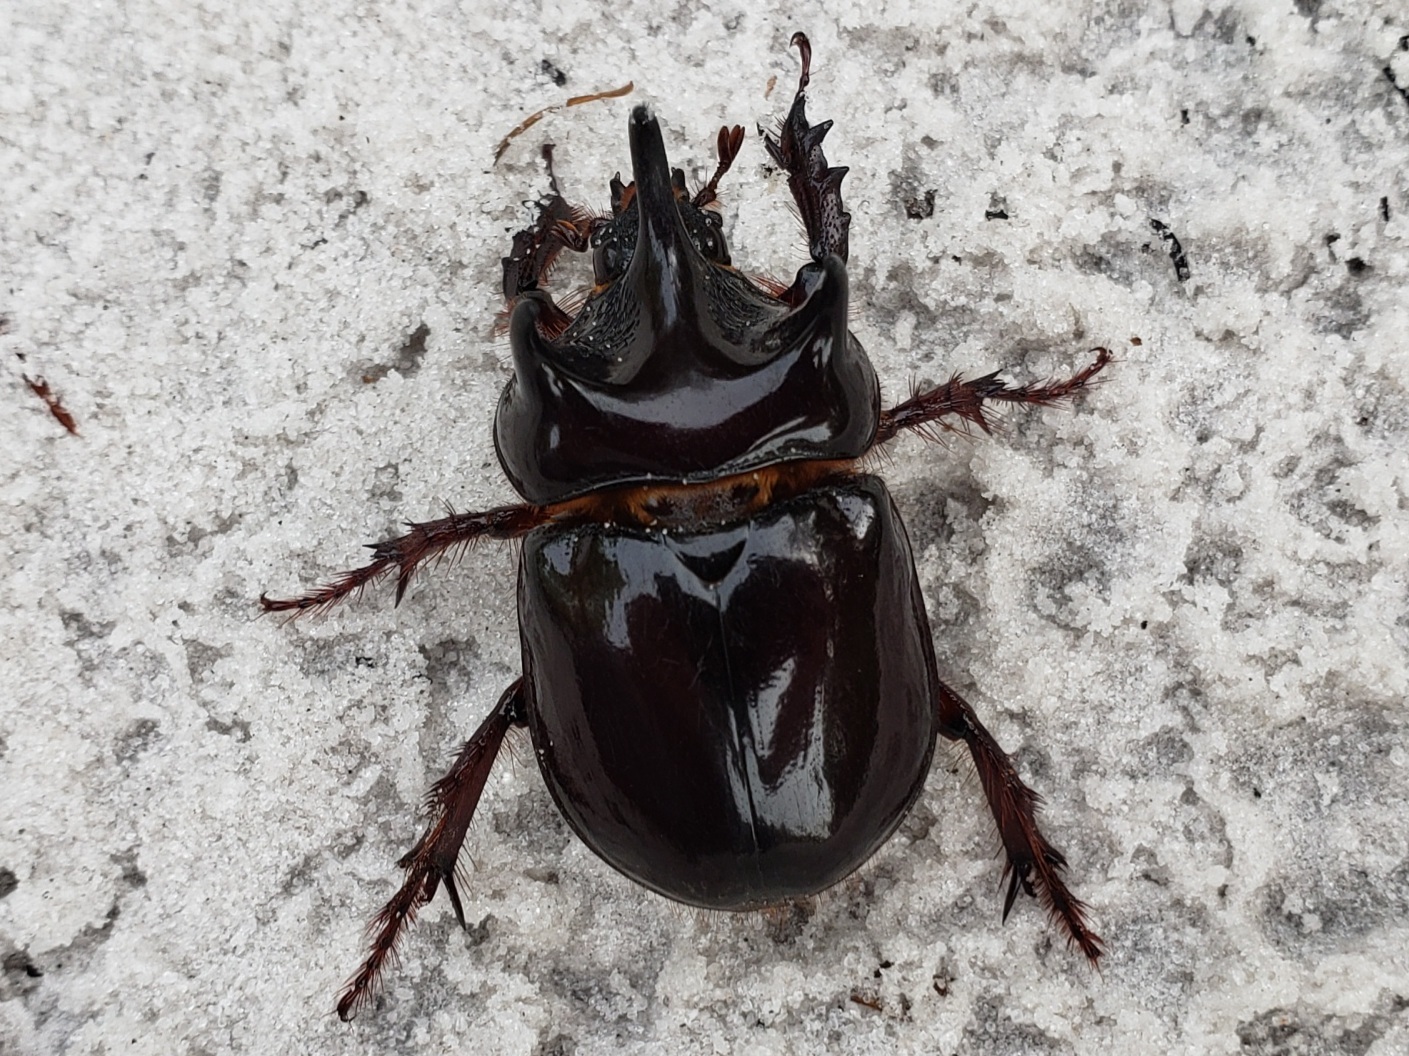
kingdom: Animalia
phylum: Arthropoda
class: Insecta
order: Coleoptera
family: Scarabaeidae
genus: Strategus
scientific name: Strategus antaeus
